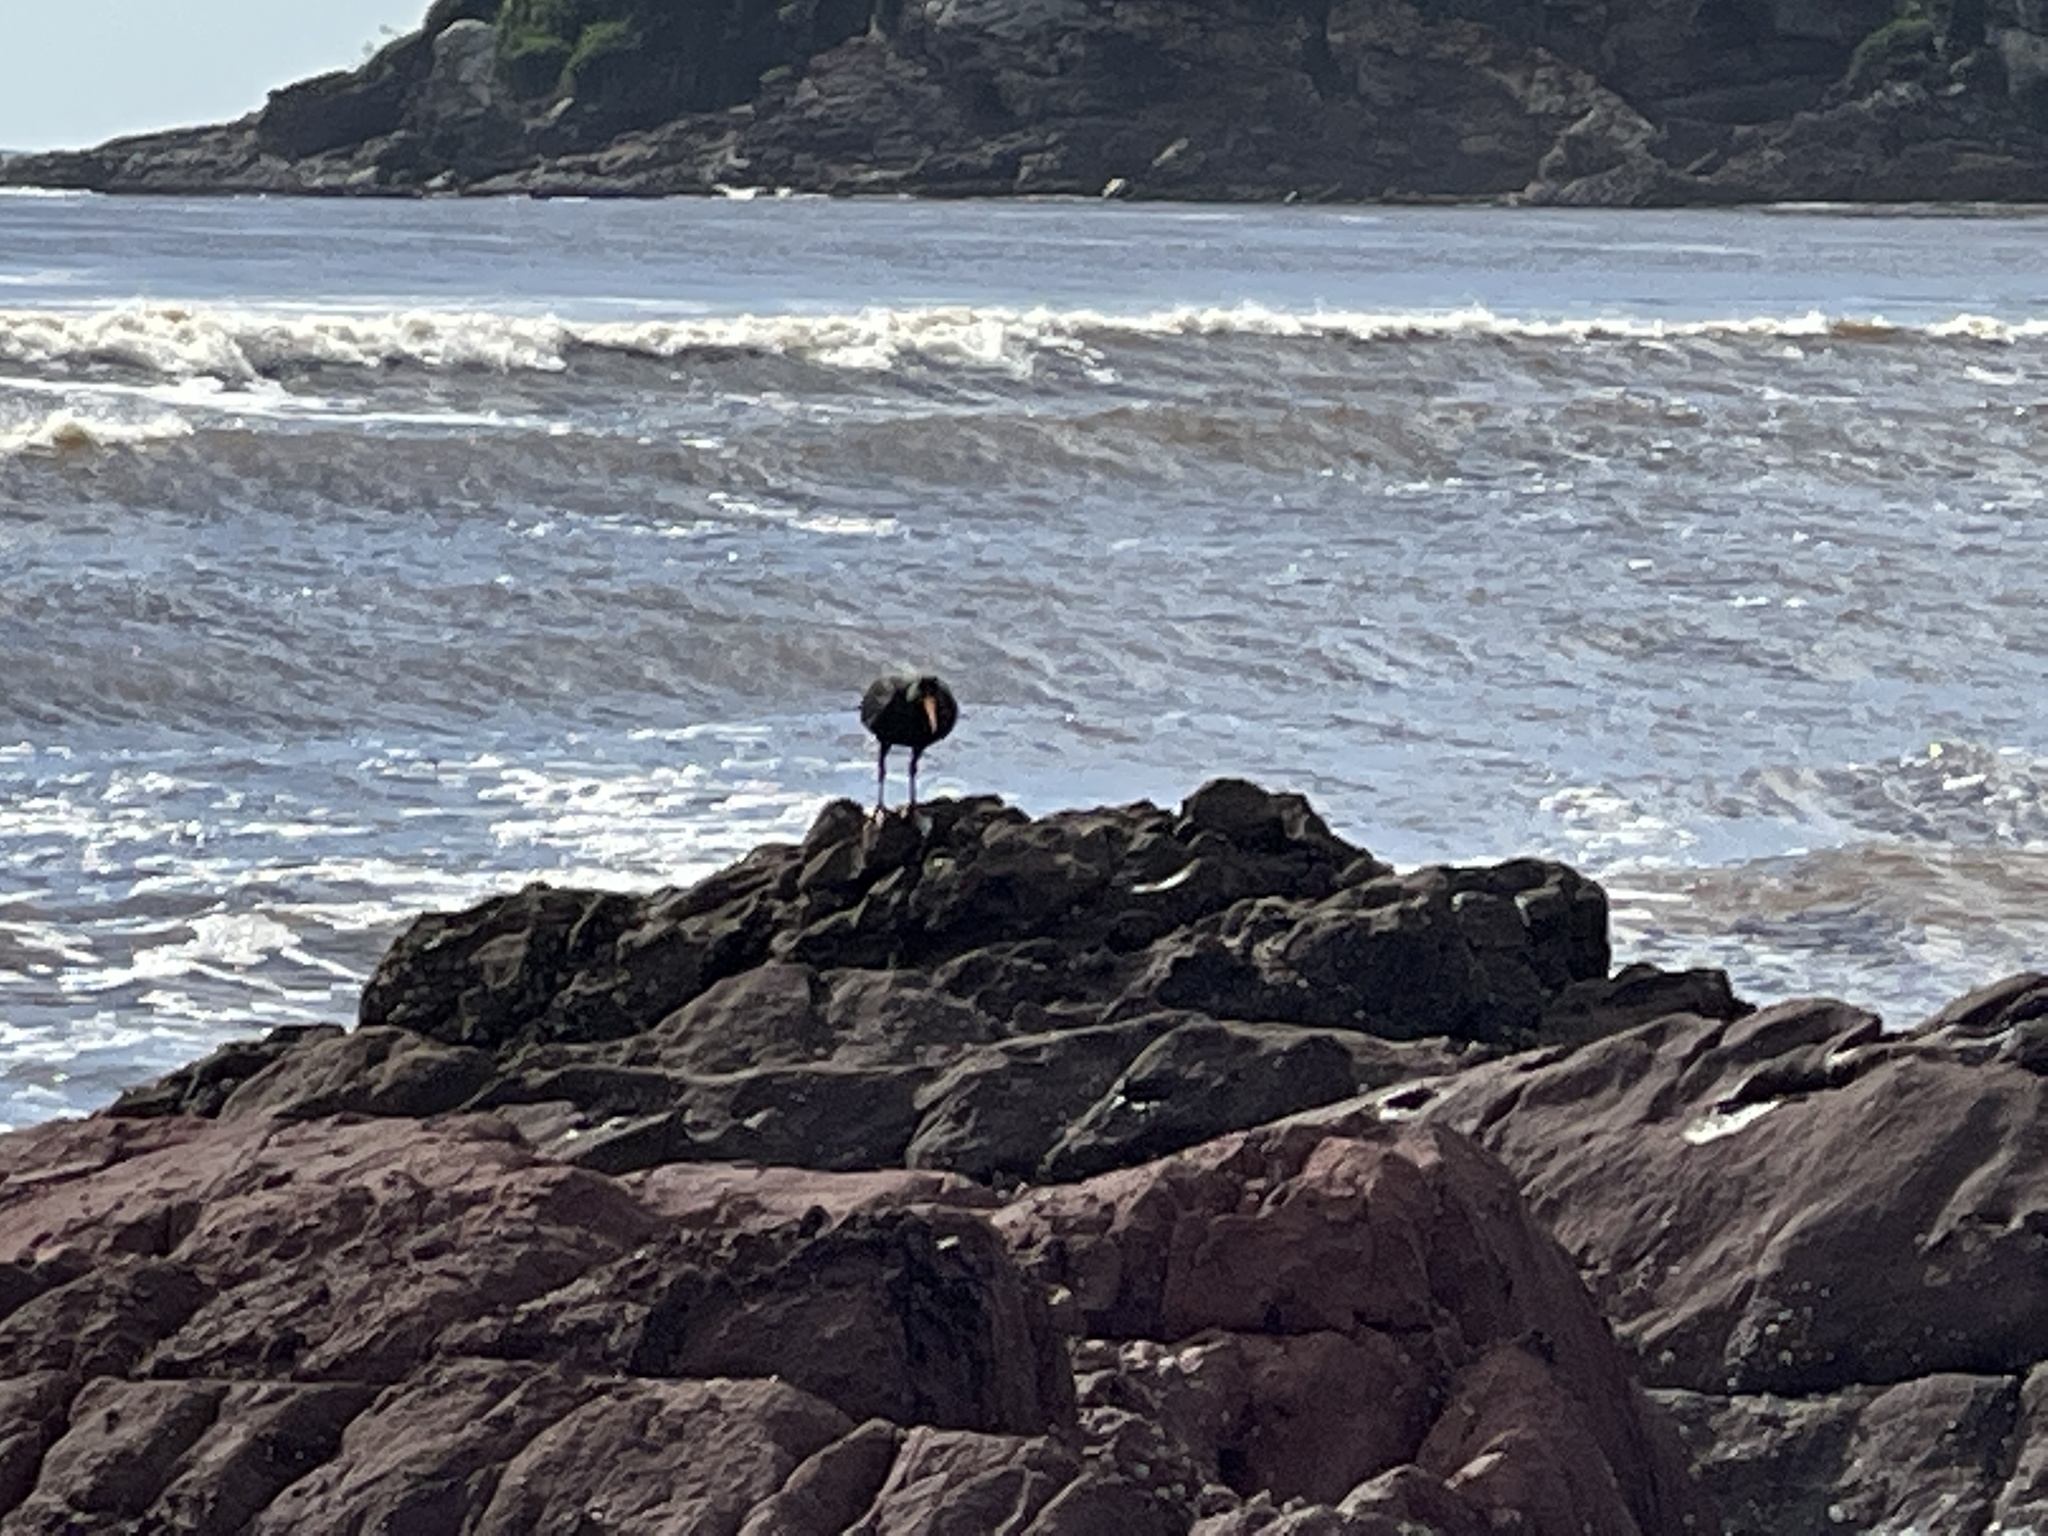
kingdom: Animalia
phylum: Chordata
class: Aves
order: Charadriiformes
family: Haematopodidae
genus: Haematopus
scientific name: Haematopus fuliginosus
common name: Sooty oystercatcher
